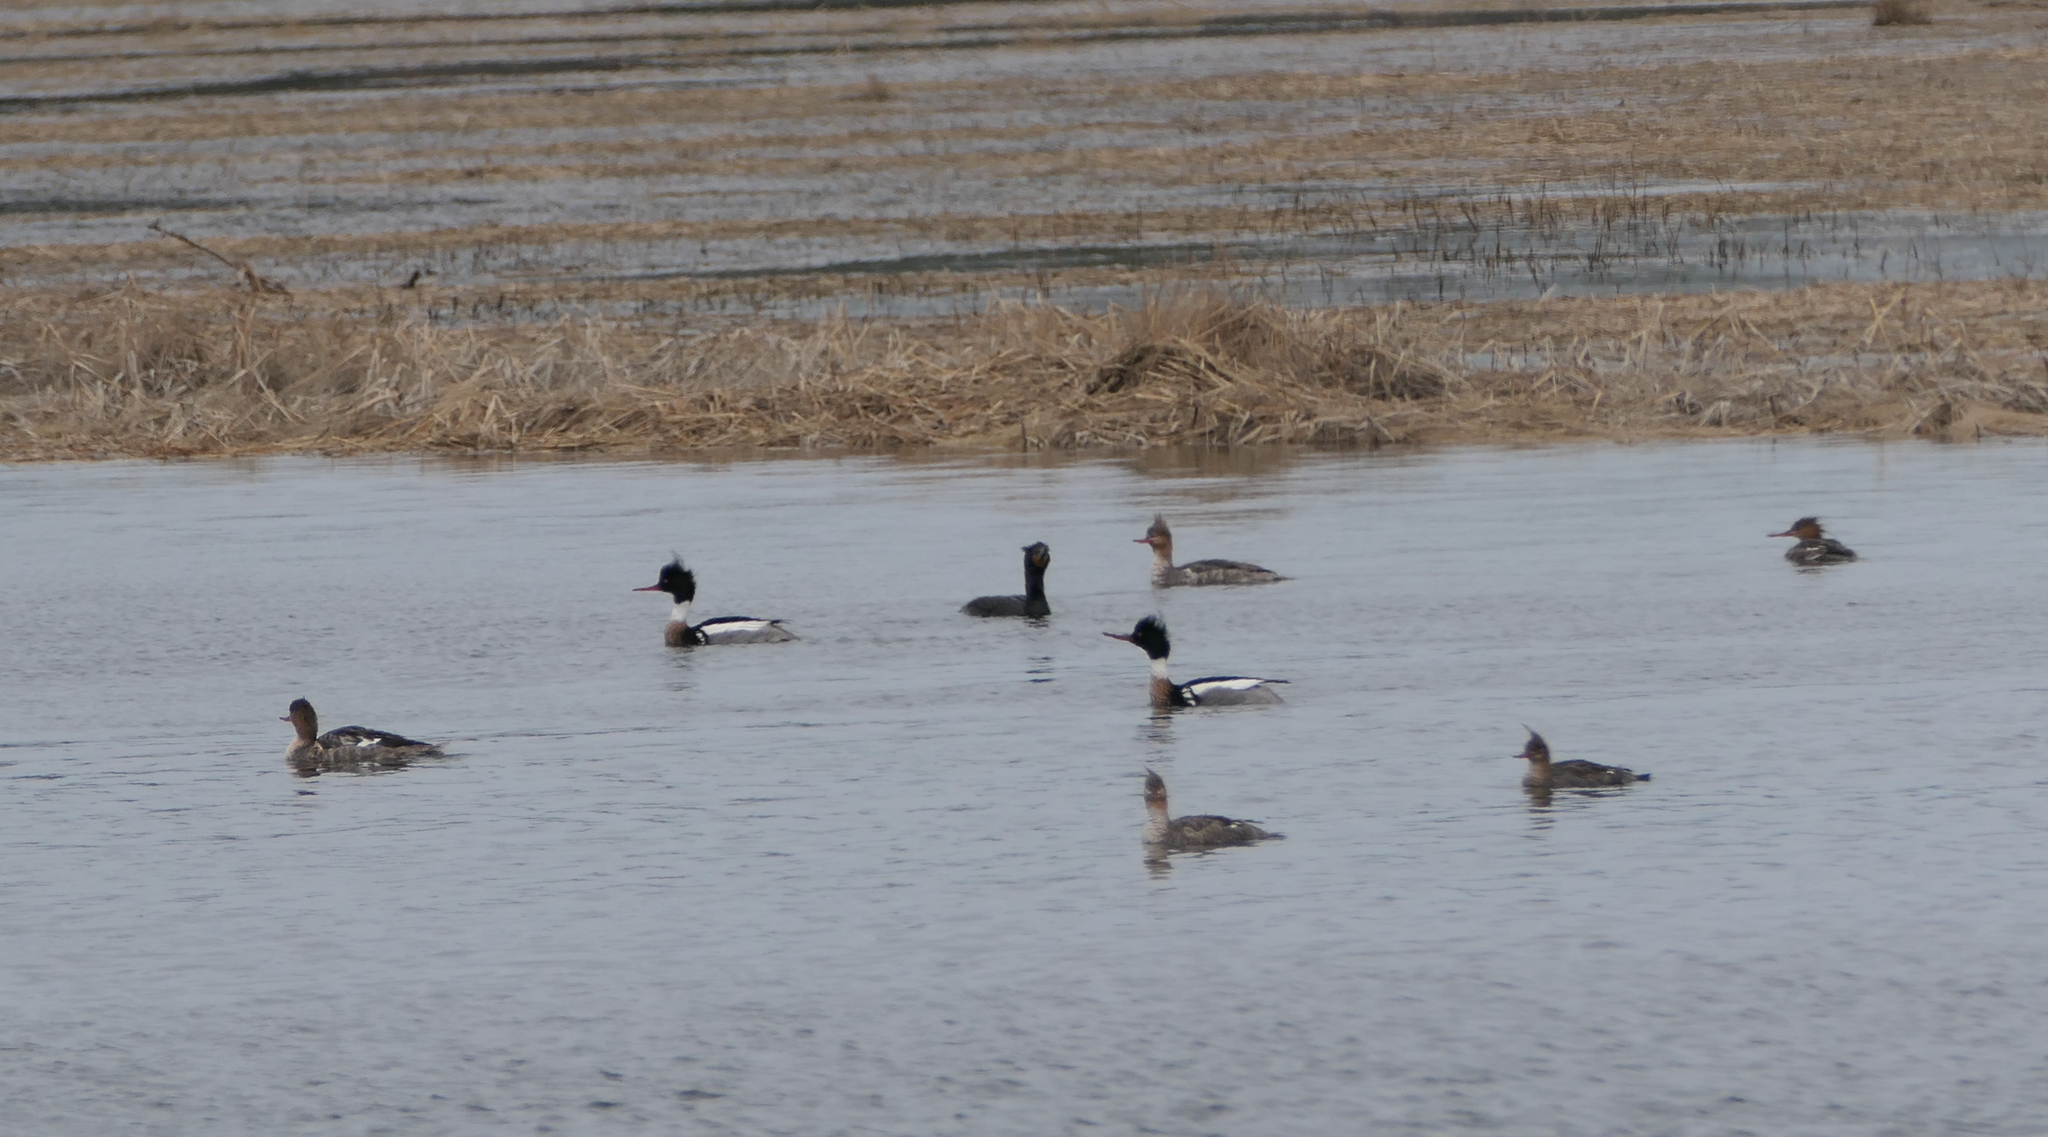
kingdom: Animalia
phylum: Chordata
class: Aves
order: Anseriformes
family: Anatidae
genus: Mergus
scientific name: Mergus serrator
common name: Red-breasted merganser
